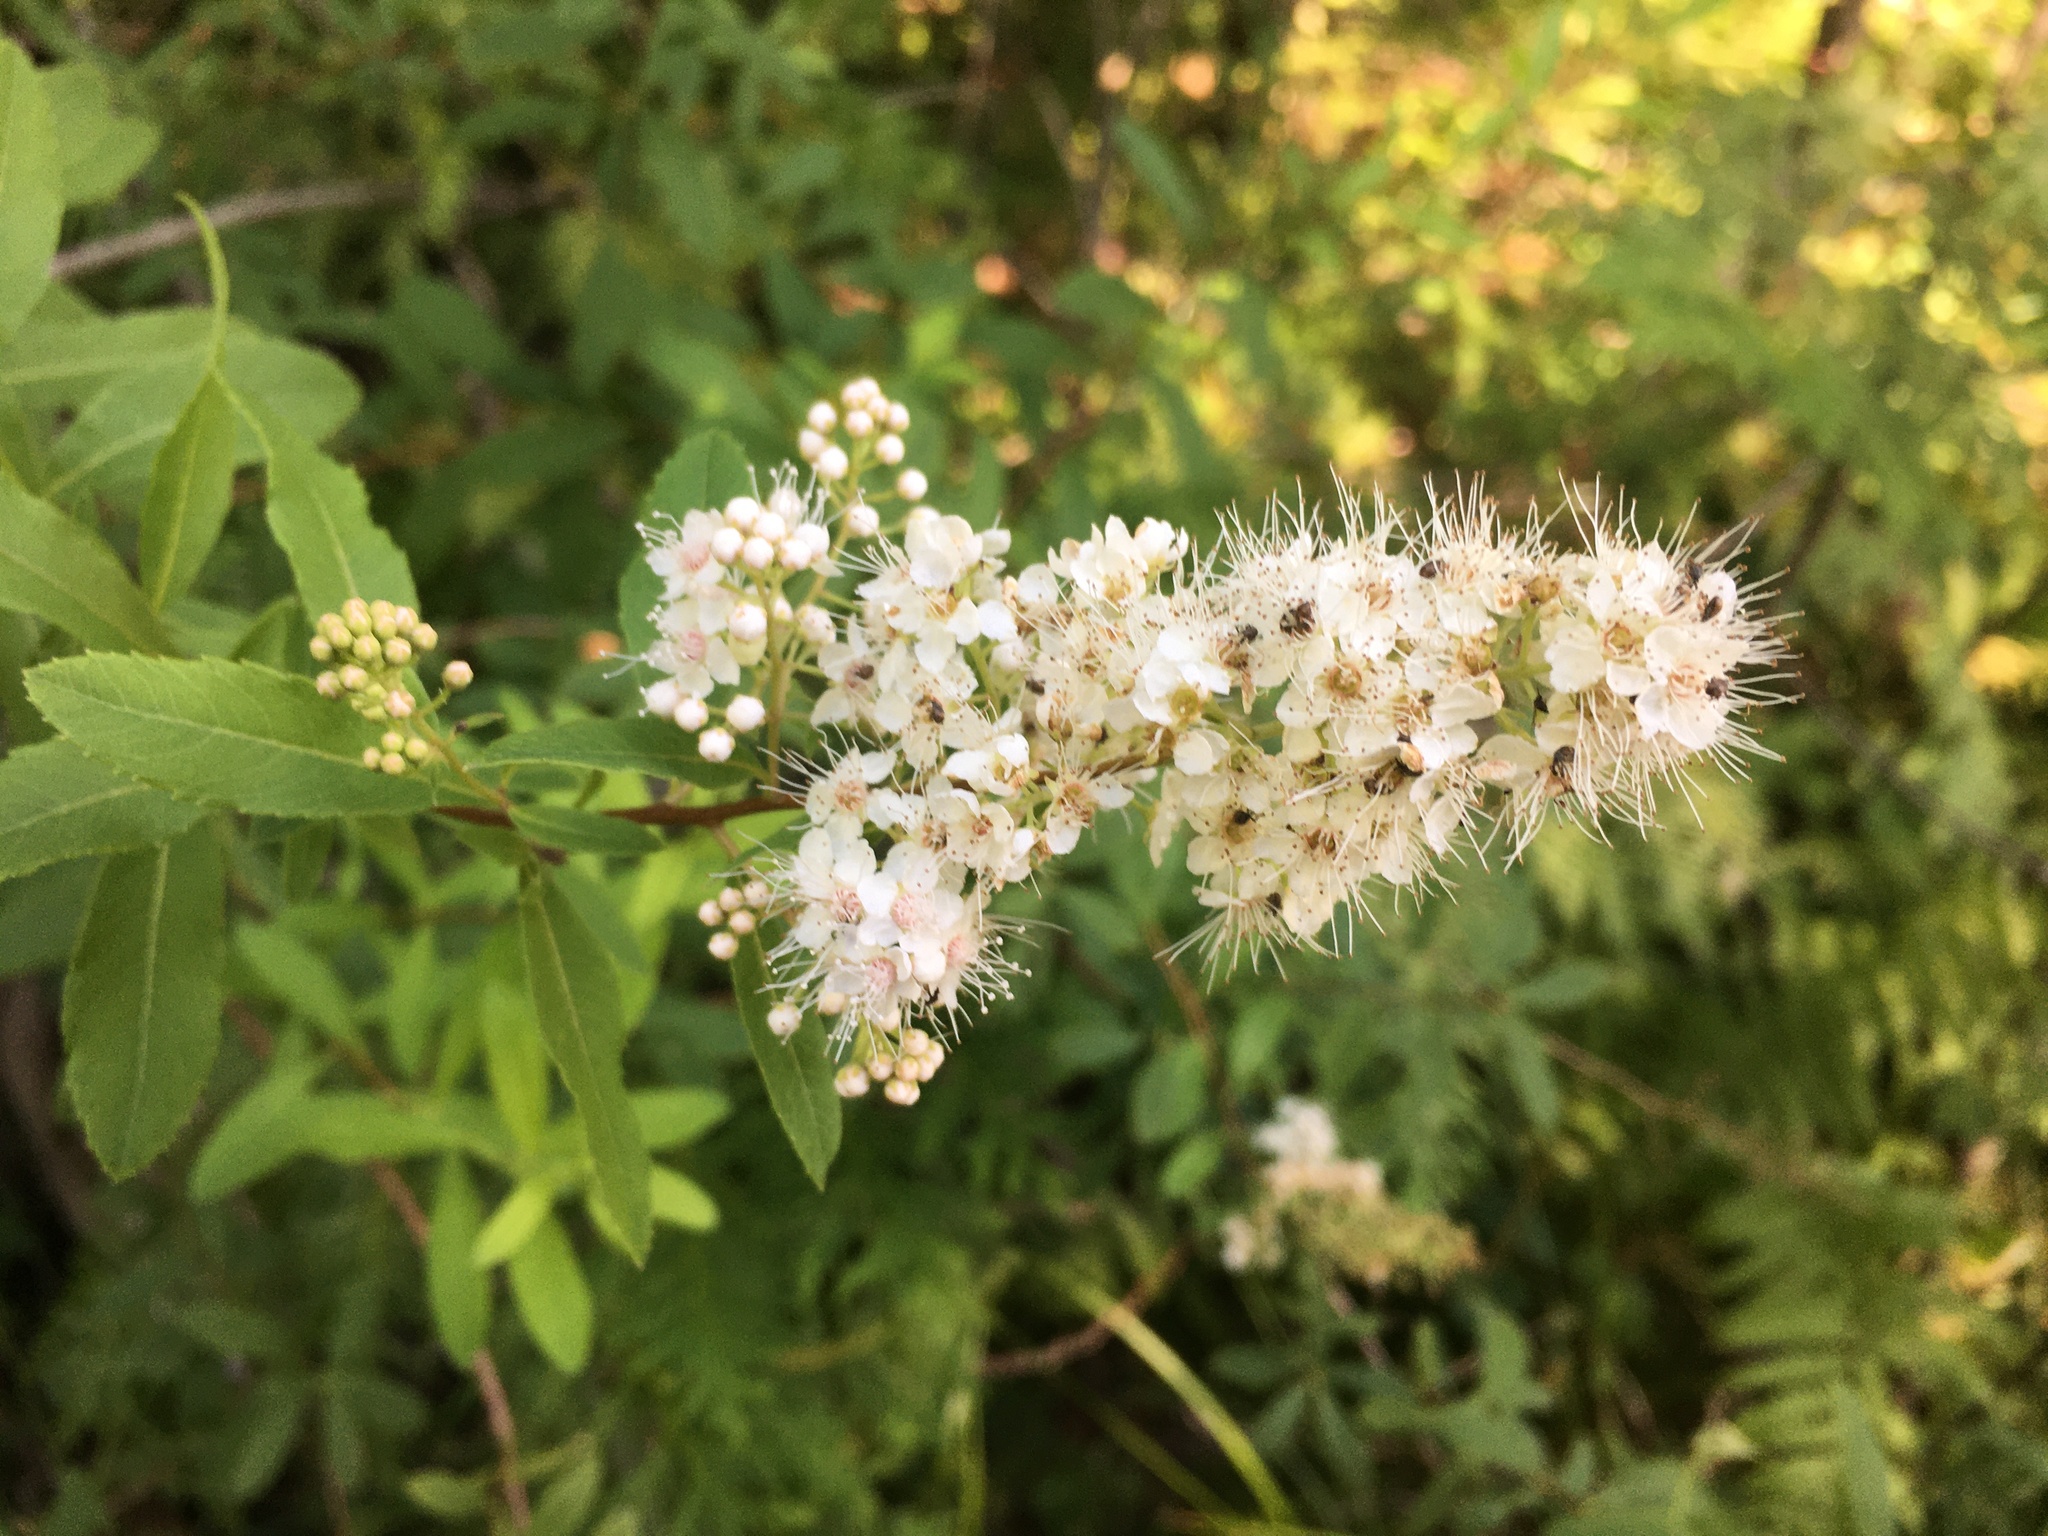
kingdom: Plantae
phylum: Tracheophyta
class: Magnoliopsida
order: Rosales
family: Rosaceae
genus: Spiraea
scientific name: Spiraea alba
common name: Pale bridewort
